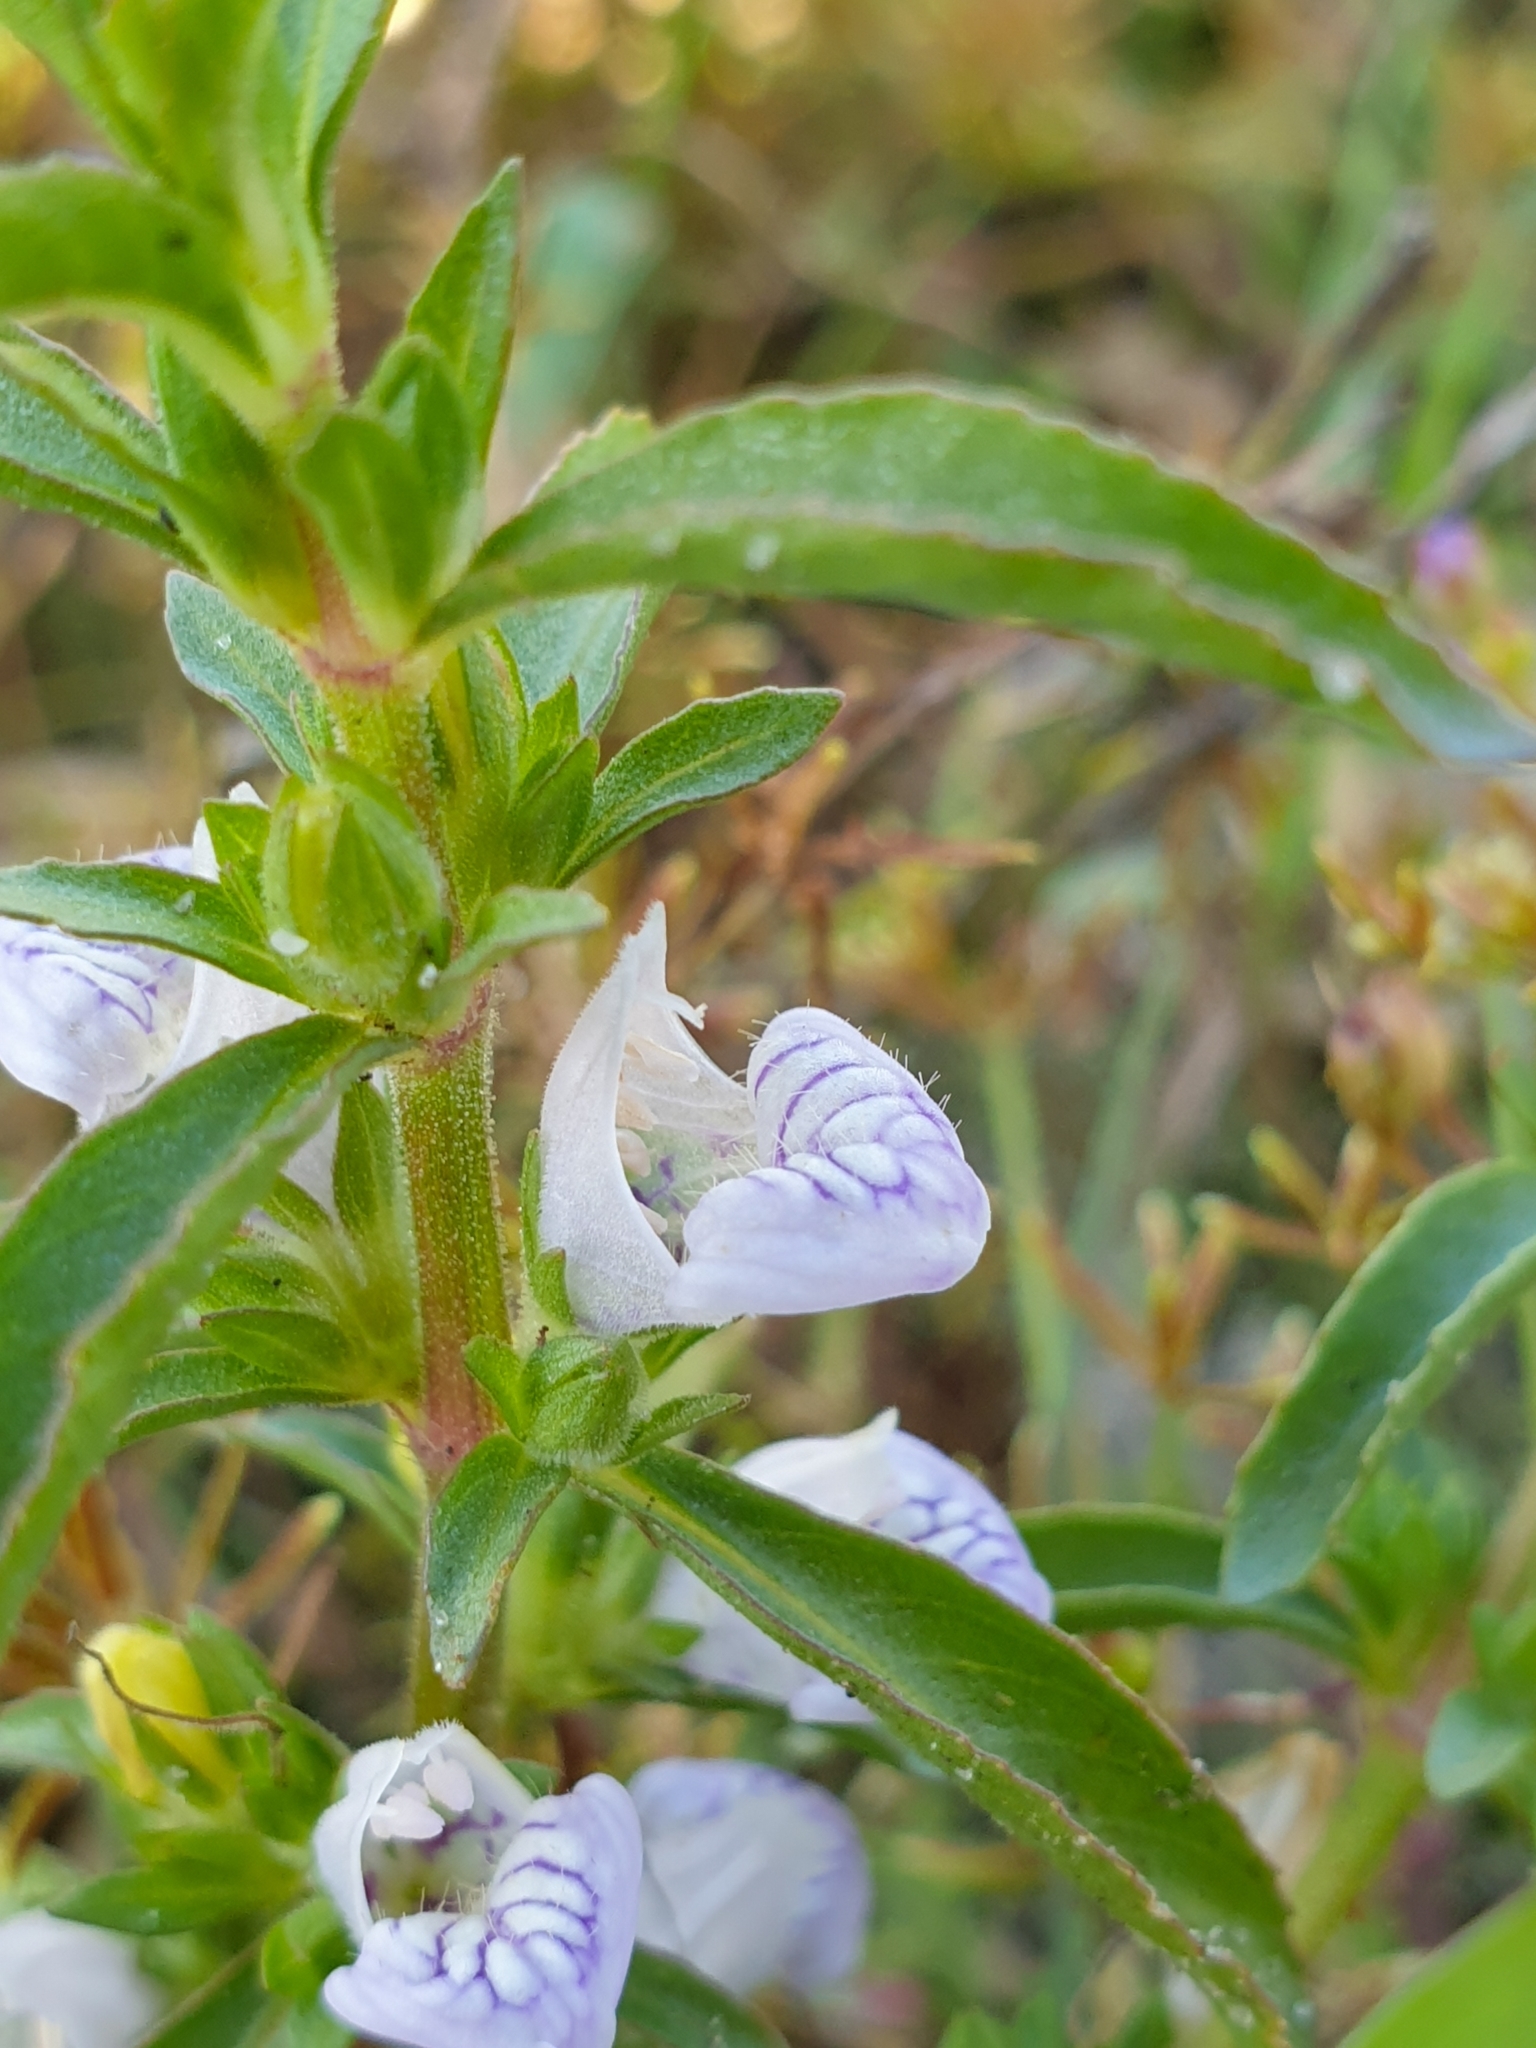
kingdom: Plantae
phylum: Tracheophyta
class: Magnoliopsida
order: Lamiales
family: Acanthaceae
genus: Hygrophila
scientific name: Hygrophila balsamica
